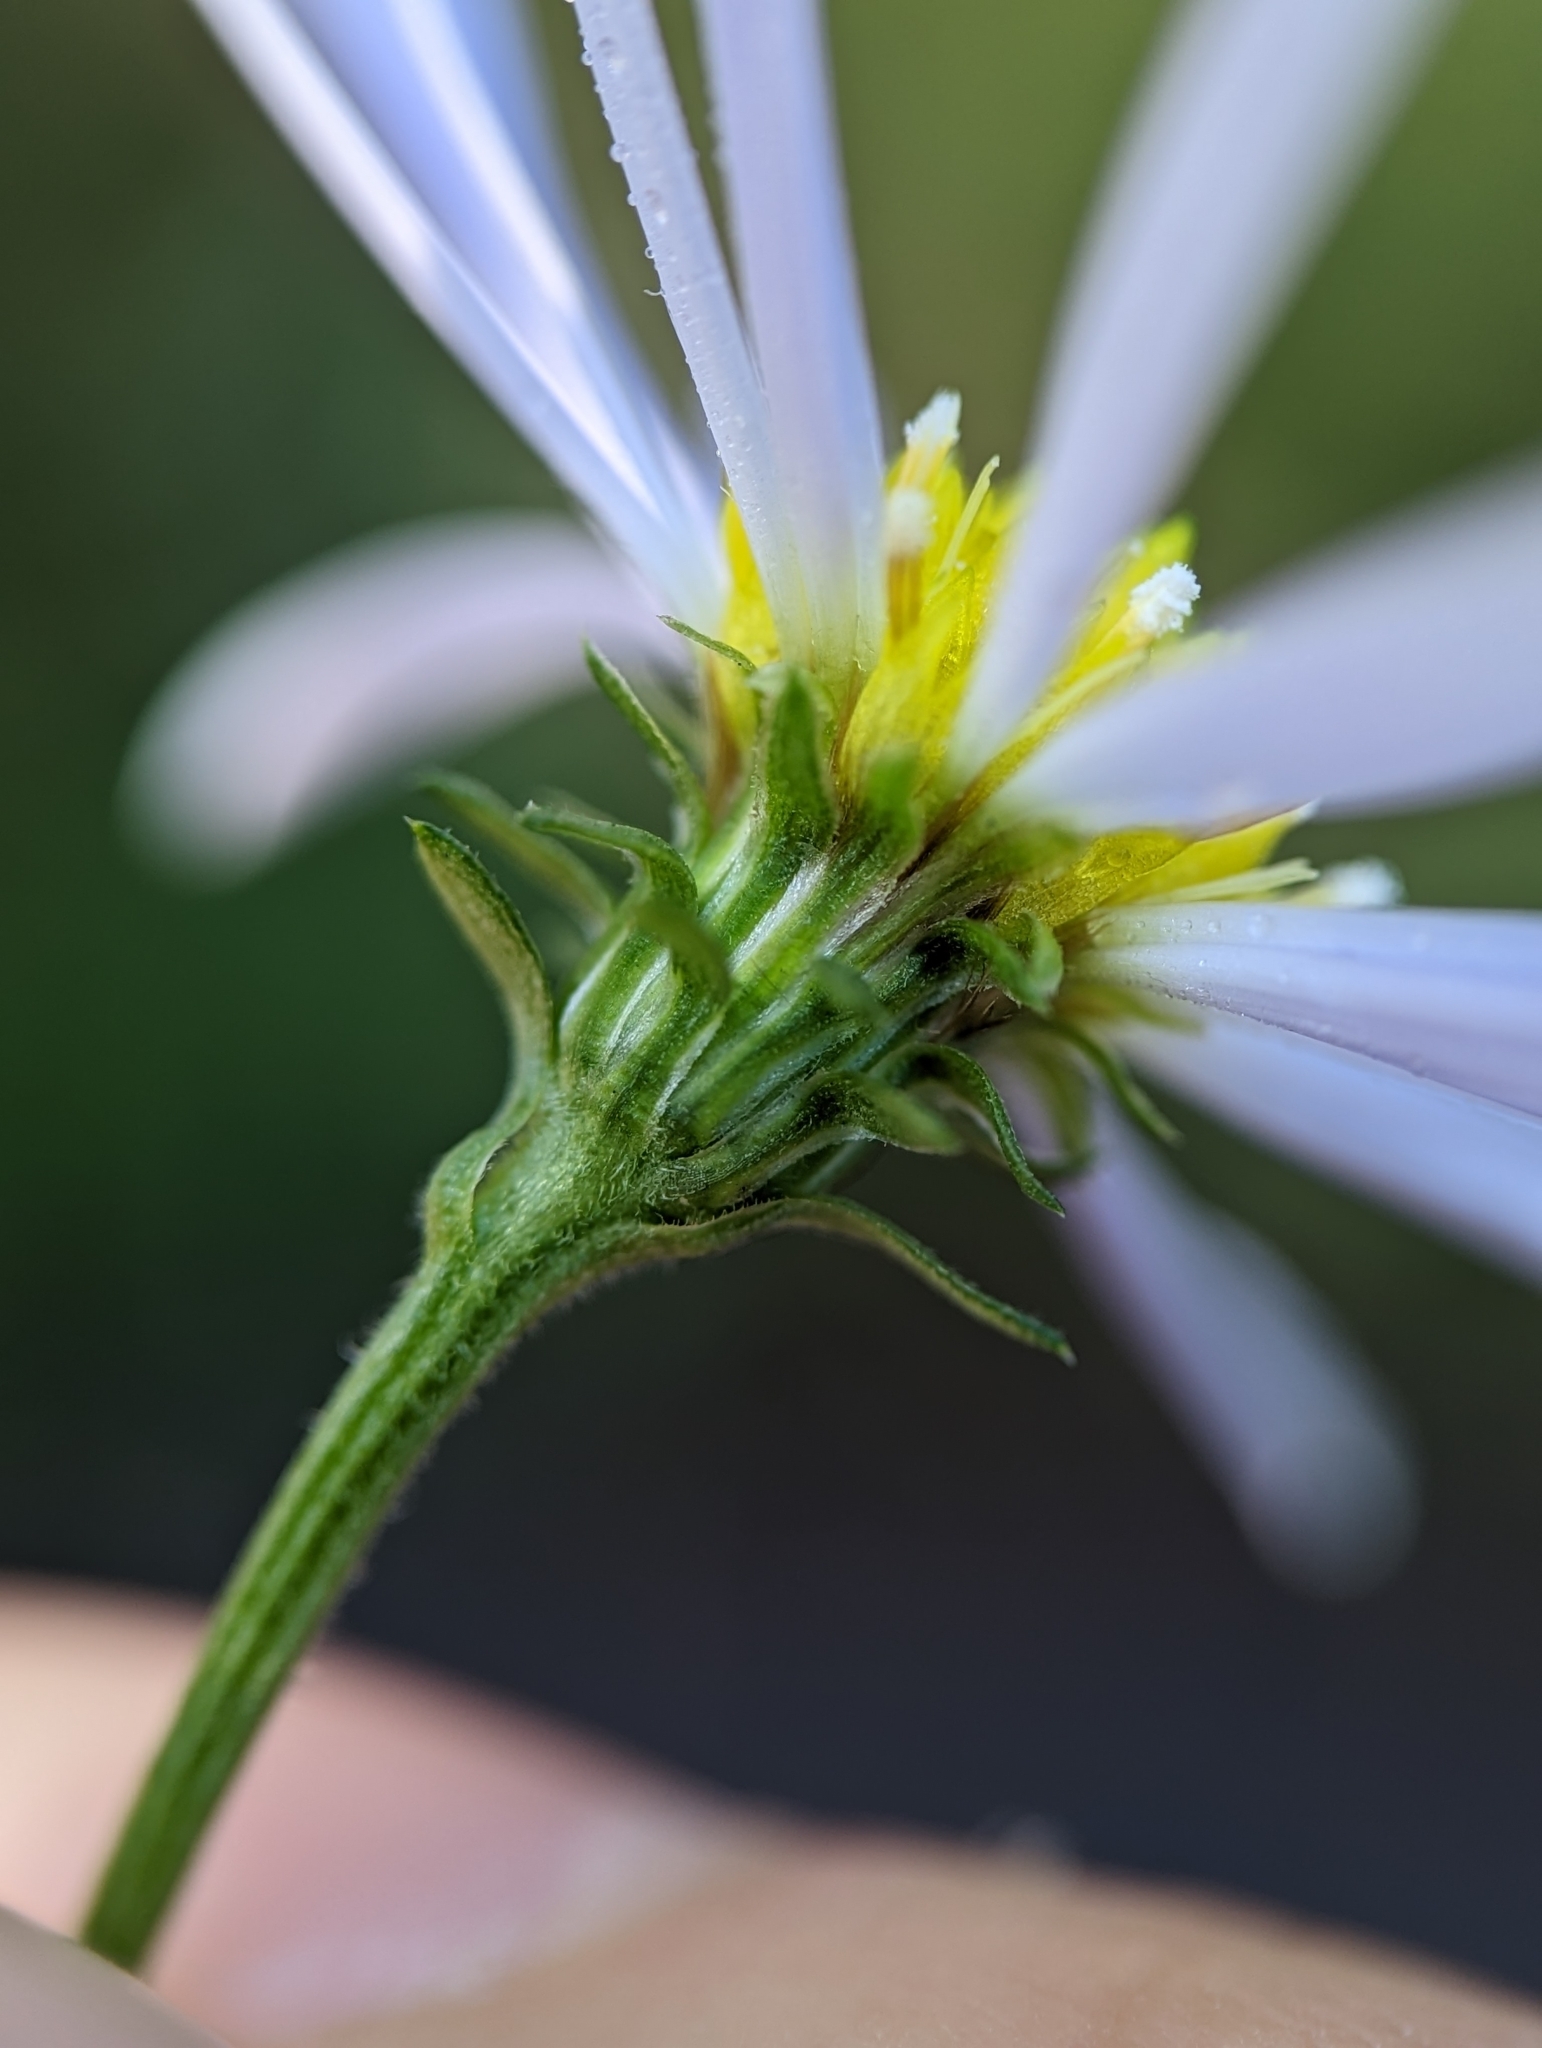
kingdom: Plantae
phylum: Tracheophyta
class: Magnoliopsida
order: Asterales
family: Asteraceae
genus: Symphyotrichum
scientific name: Symphyotrichum prenanthoides
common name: Crooked-stem aster
